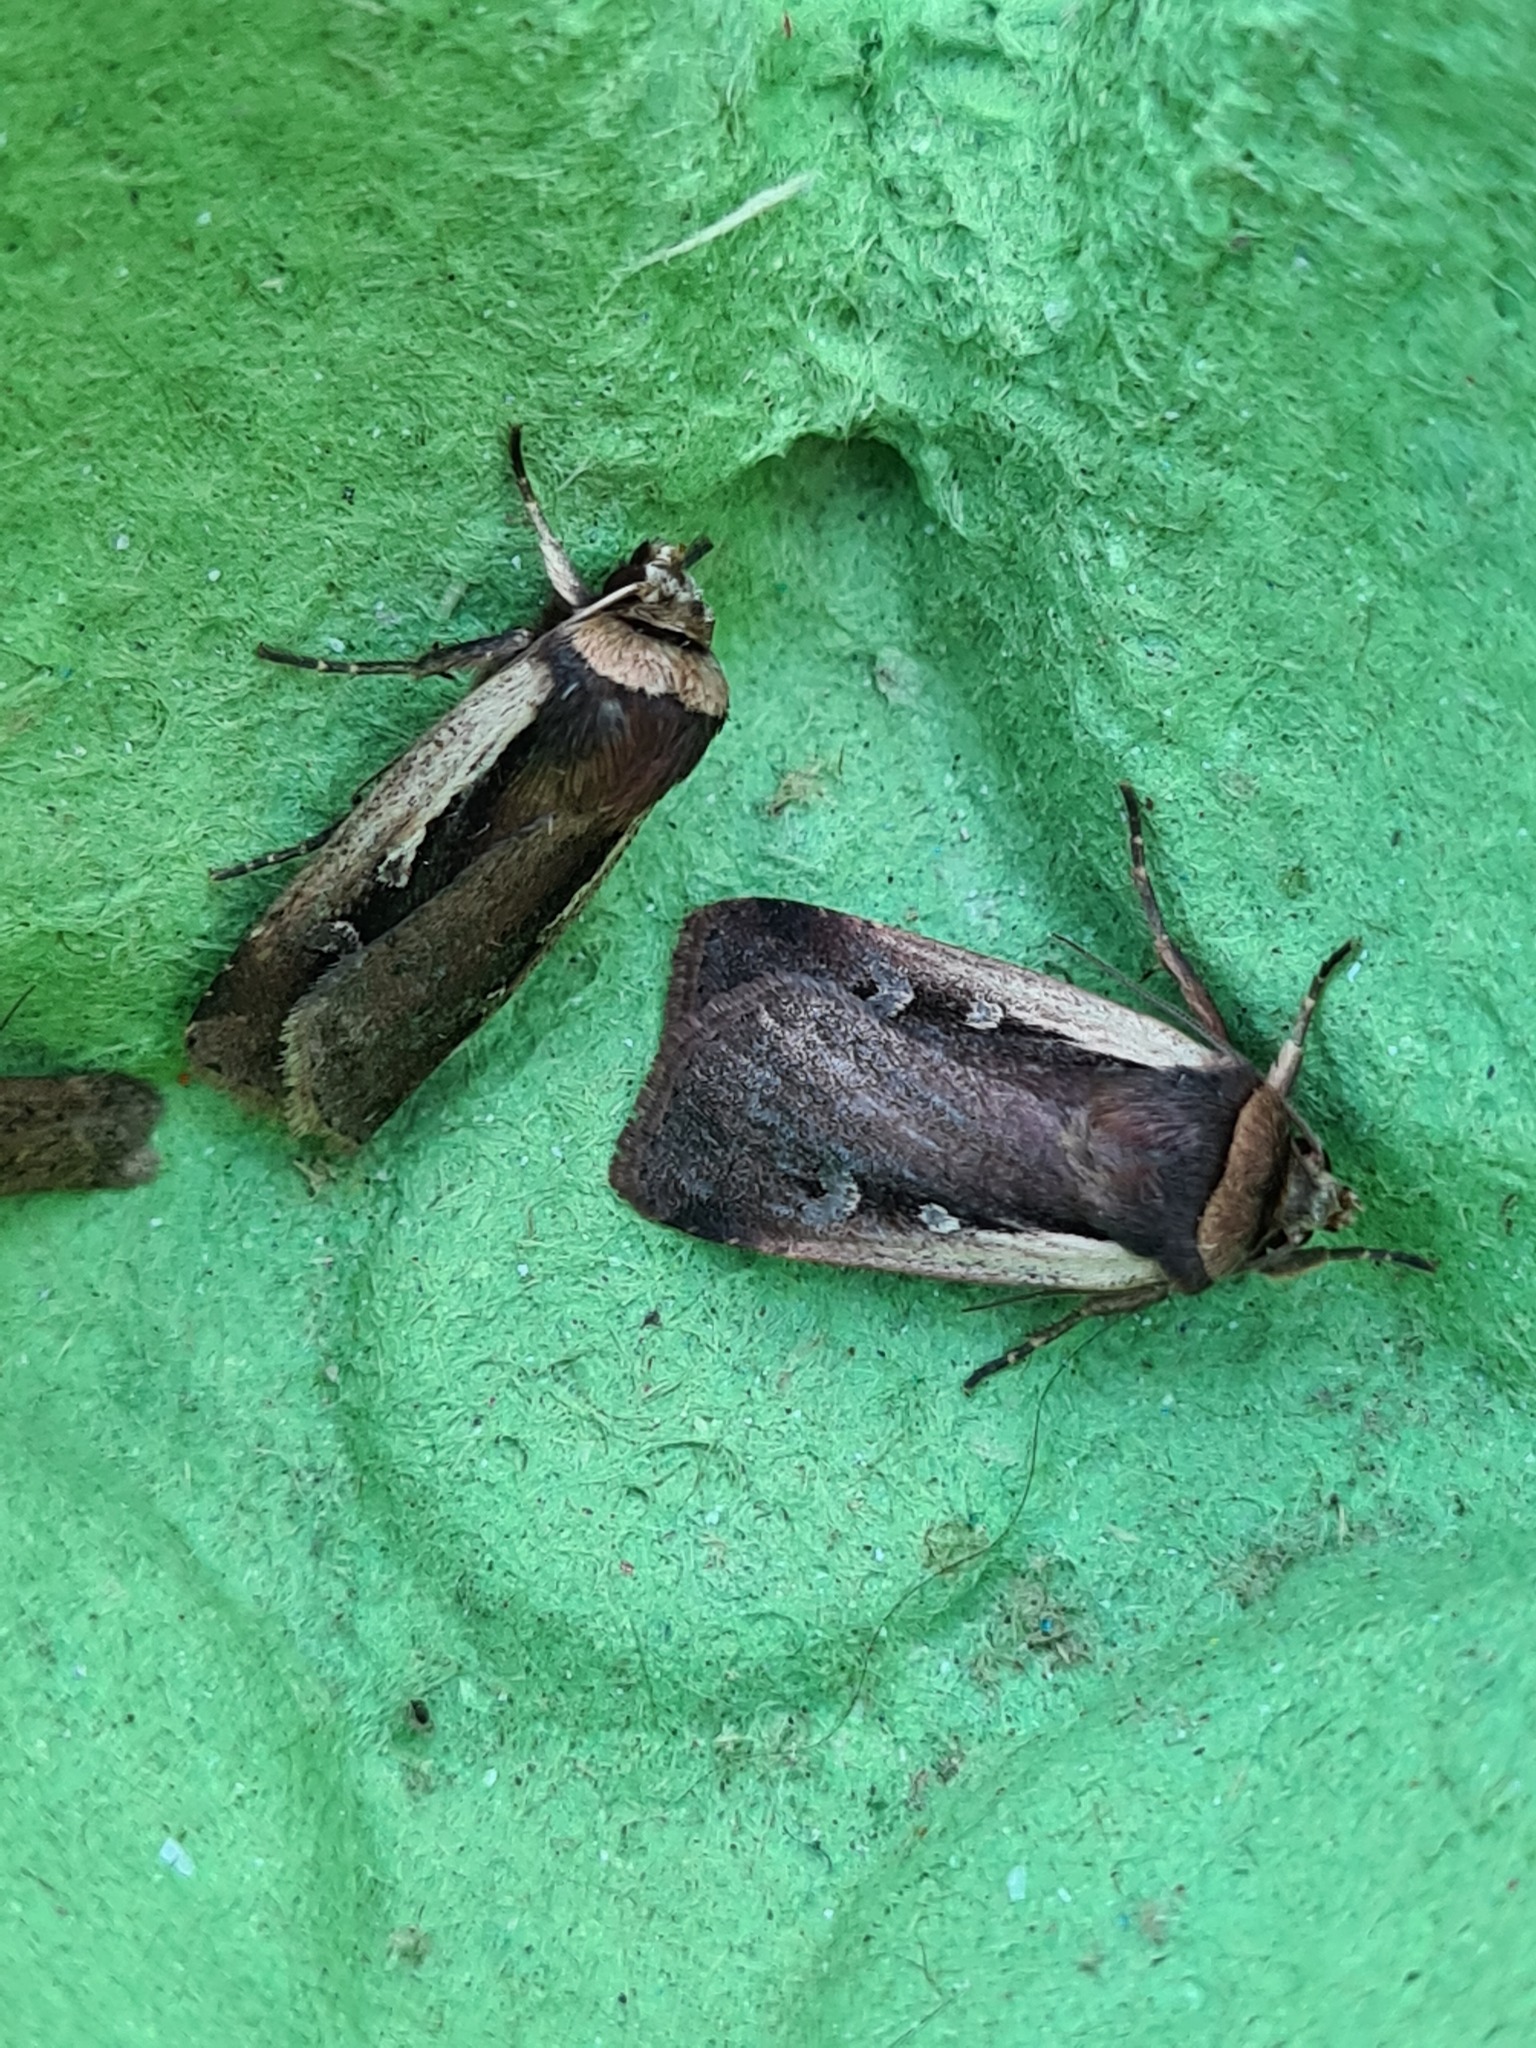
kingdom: Animalia
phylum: Arthropoda
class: Insecta
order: Lepidoptera
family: Noctuidae
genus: Ochropleura
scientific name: Ochropleura plecta
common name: Flame shoulder
